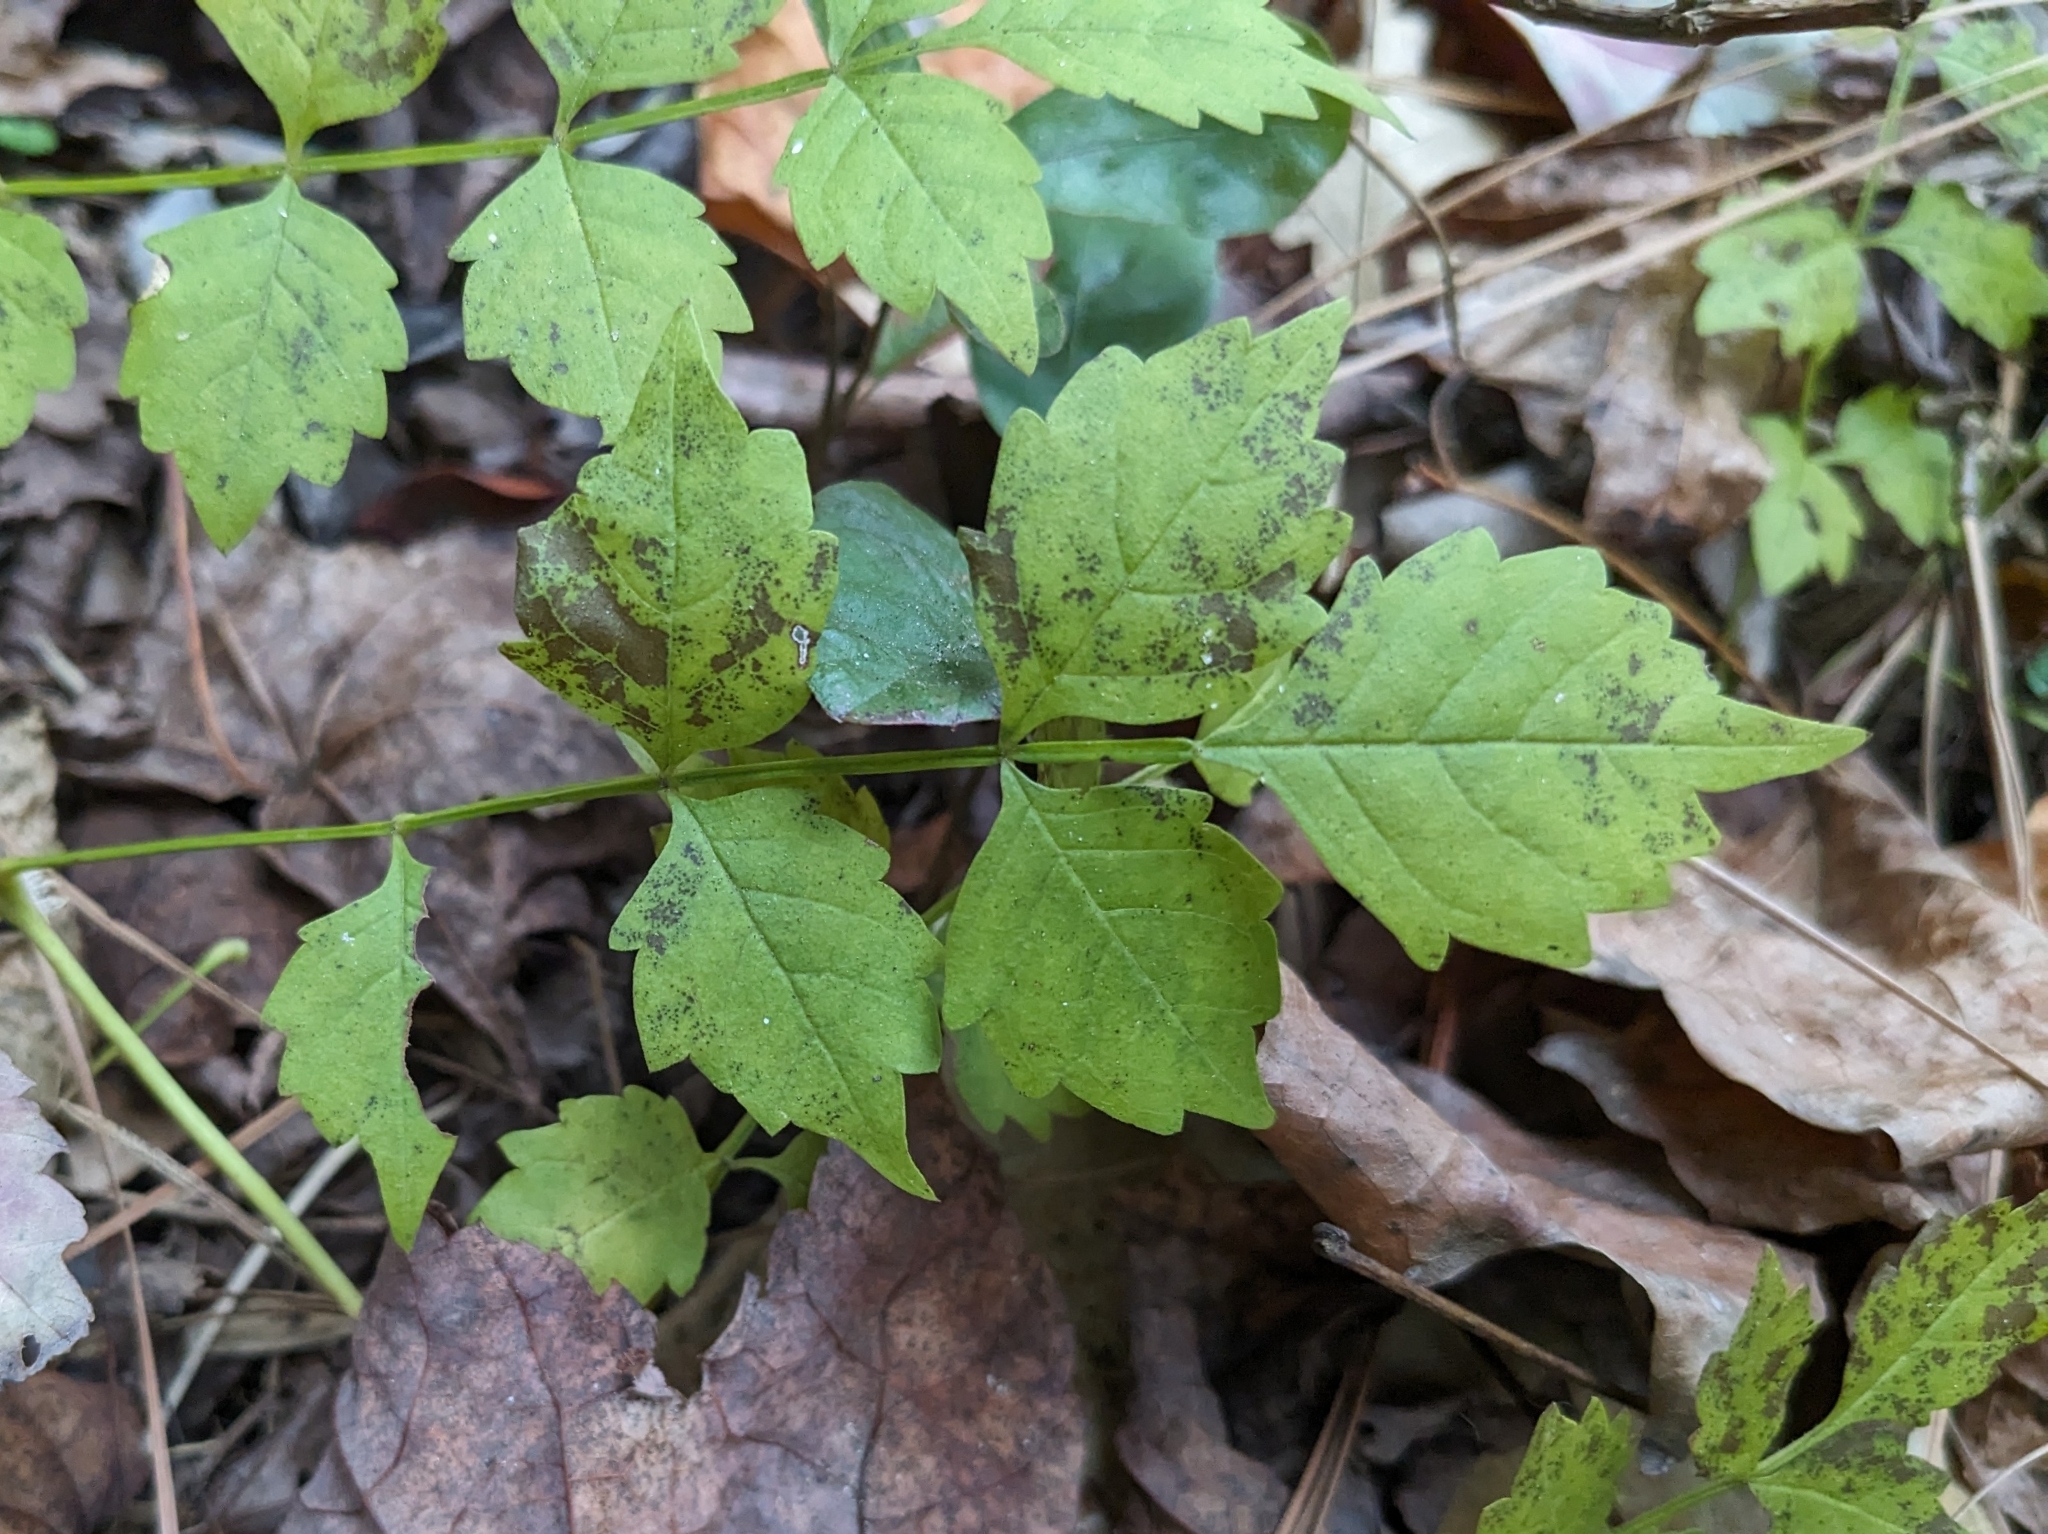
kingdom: Plantae
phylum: Tracheophyta
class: Magnoliopsida
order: Lamiales
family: Bignoniaceae
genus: Campsis
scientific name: Campsis radicans
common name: Trumpet-creeper
